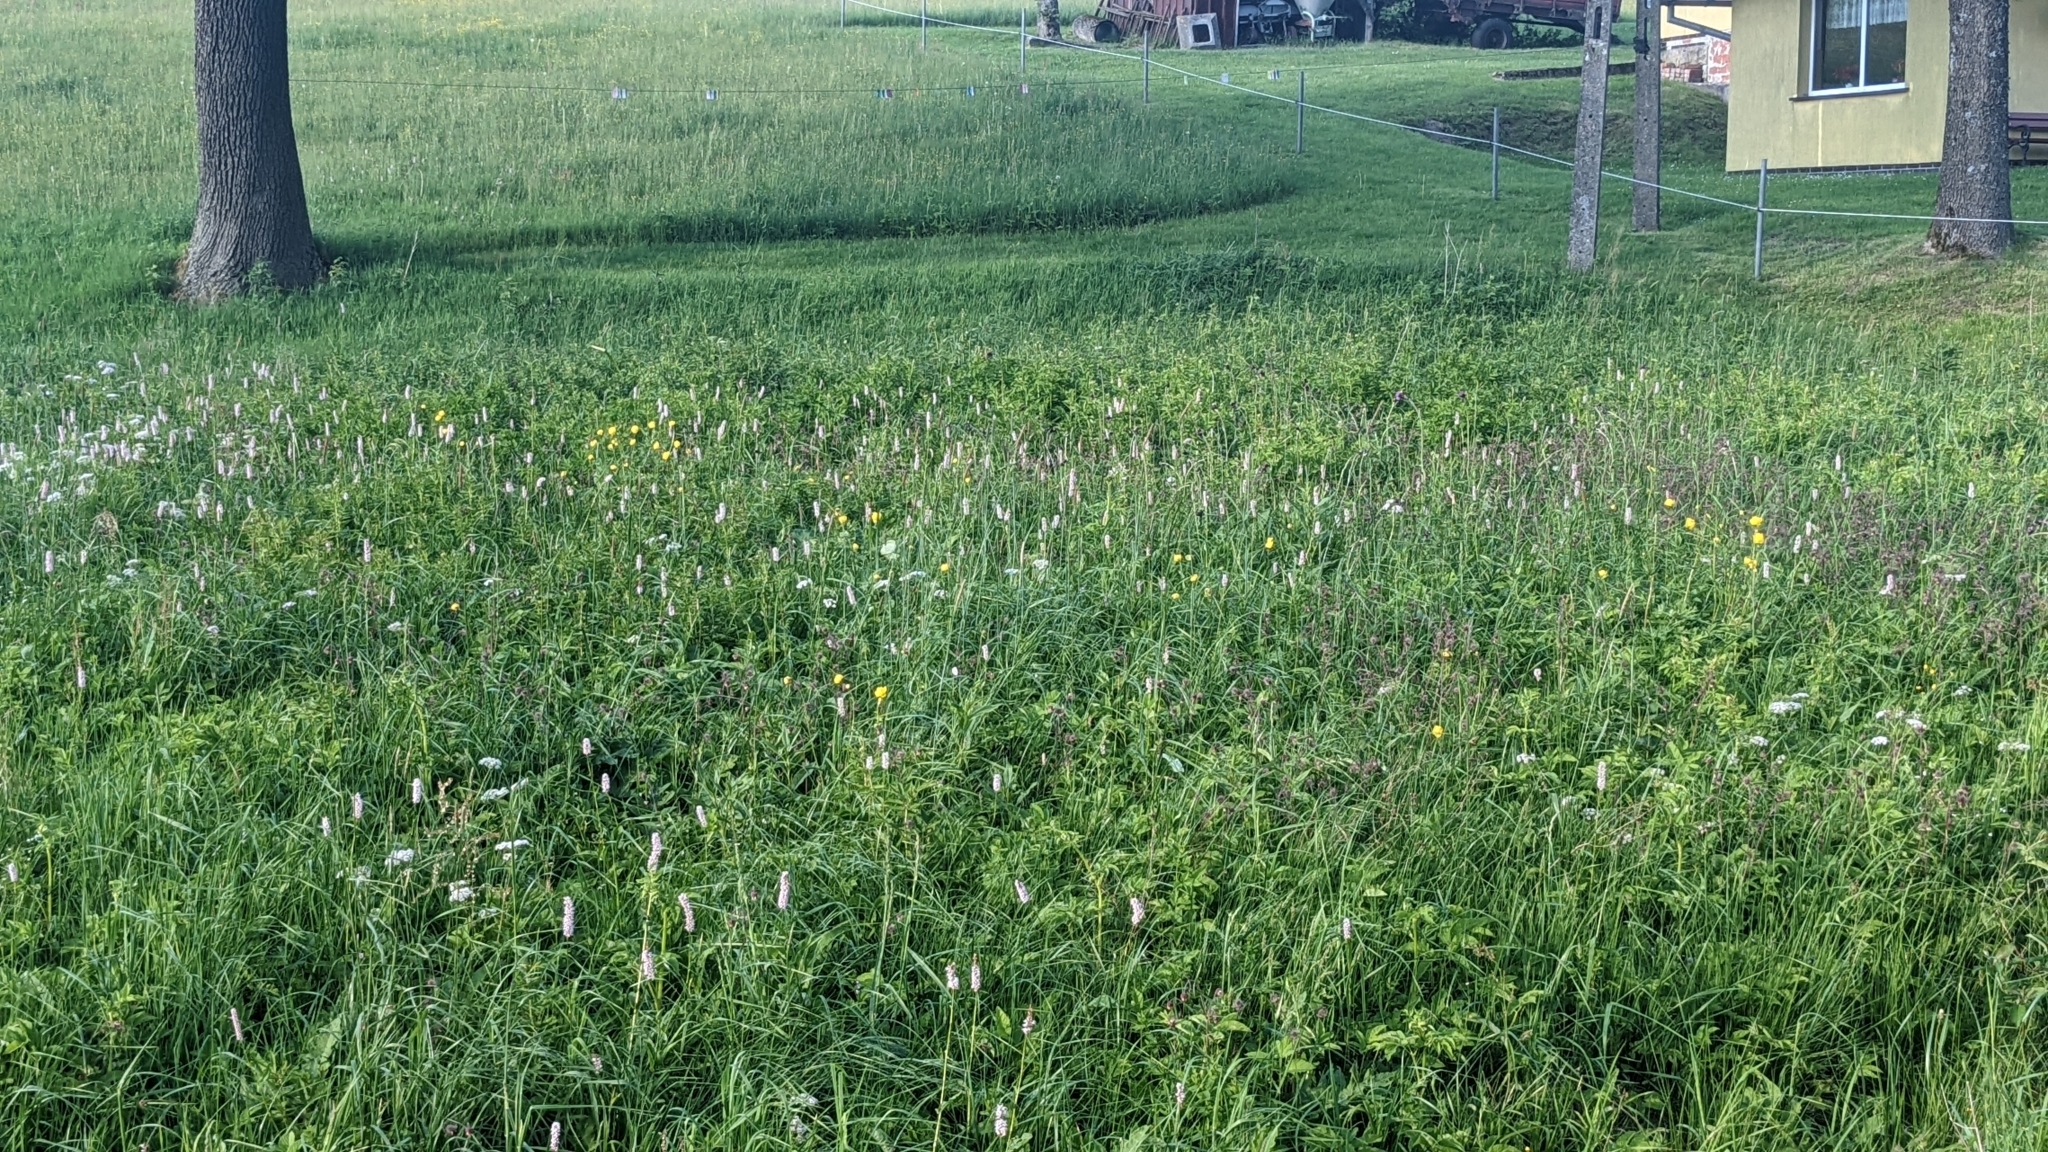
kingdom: Plantae
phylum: Tracheophyta
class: Magnoliopsida
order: Ranunculales
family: Ranunculaceae
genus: Trollius
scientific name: Trollius europaeus
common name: European globeflower
